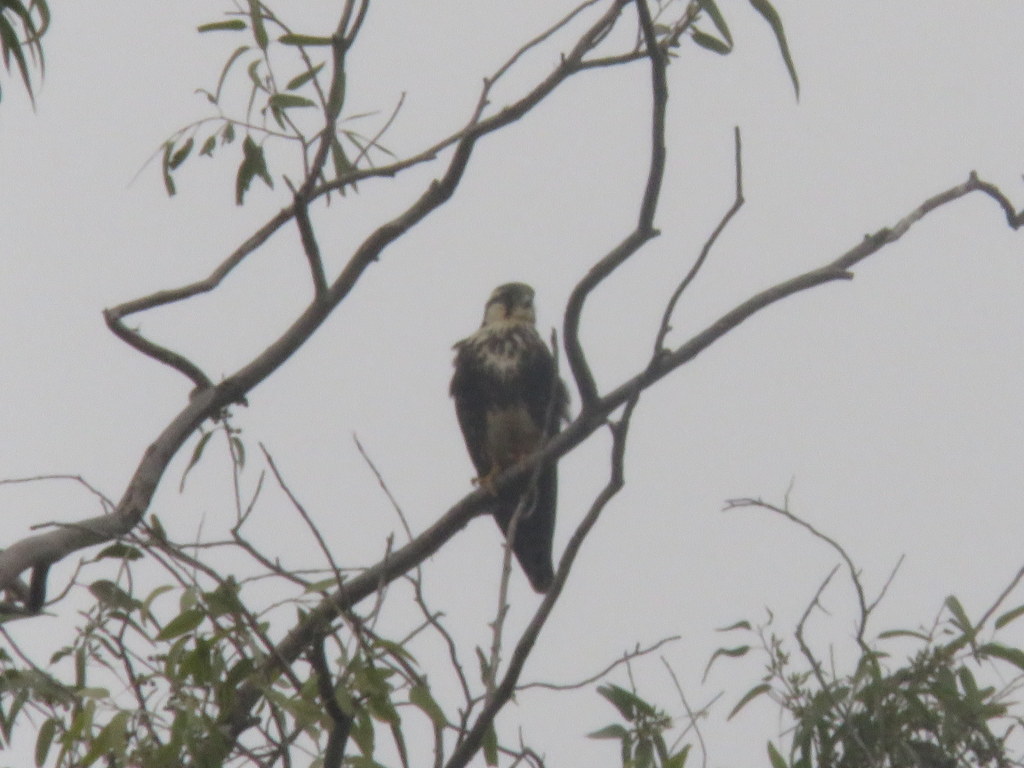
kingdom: Animalia
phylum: Chordata
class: Aves
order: Falconiformes
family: Falconidae
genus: Falco
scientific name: Falco femoralis
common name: Aplomado falcon
